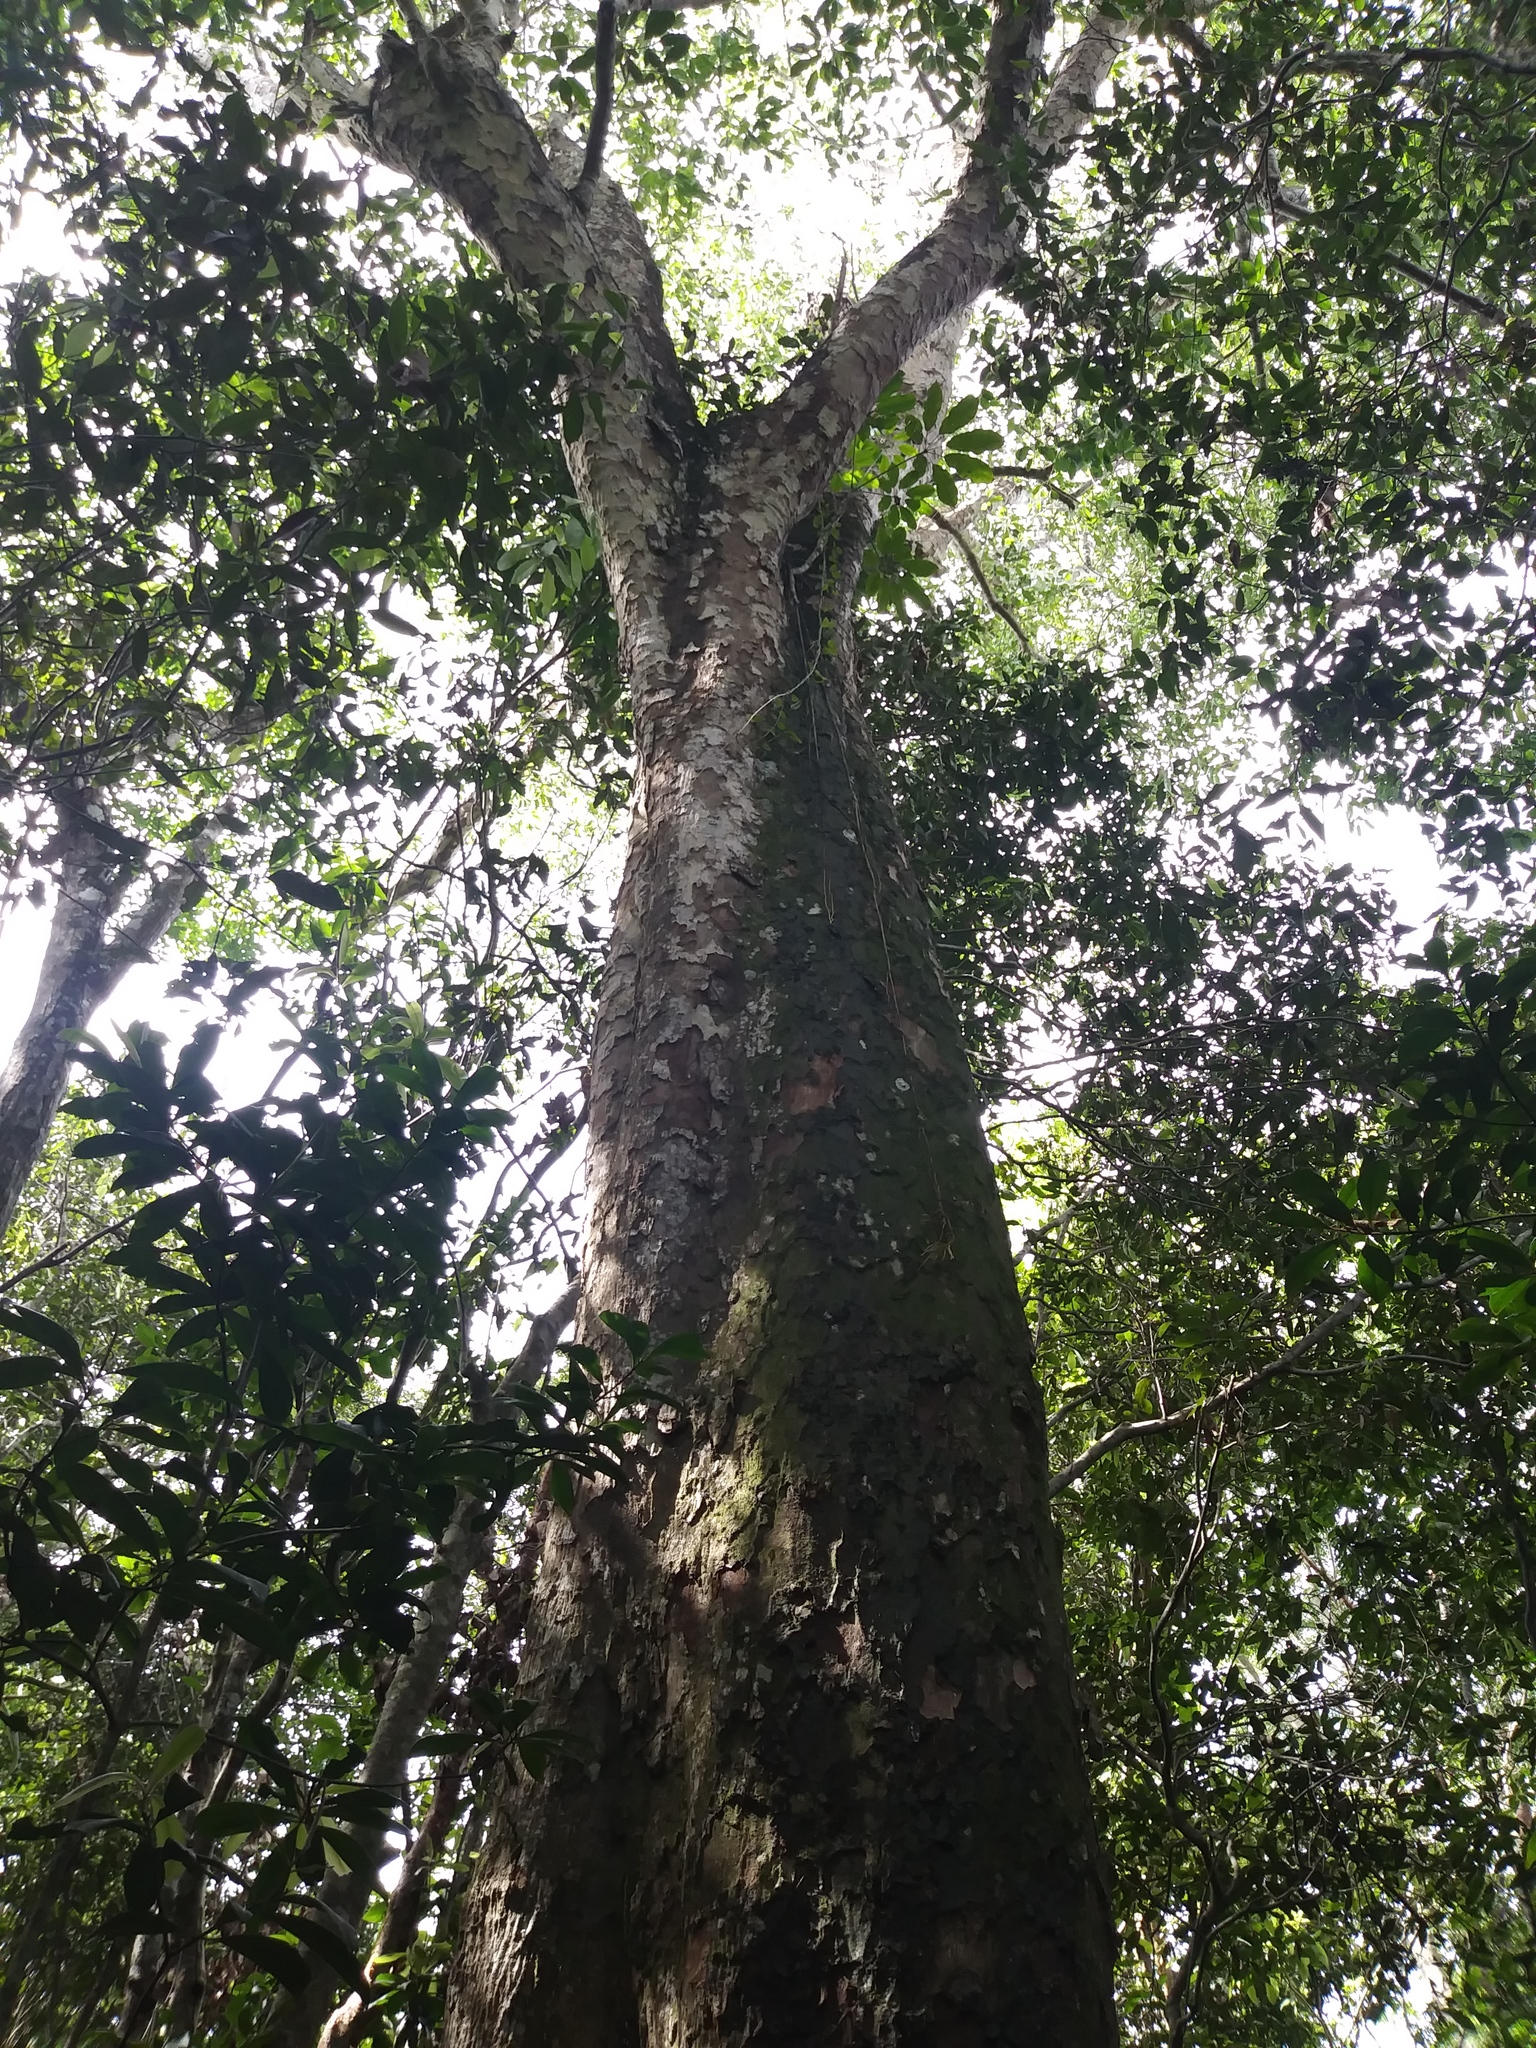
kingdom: Plantae
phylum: Tracheophyta
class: Magnoliopsida
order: Ericales
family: Sapotaceae
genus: Sideroxylon
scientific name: Sideroxylon foetidissimum
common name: Barbados-mastic
